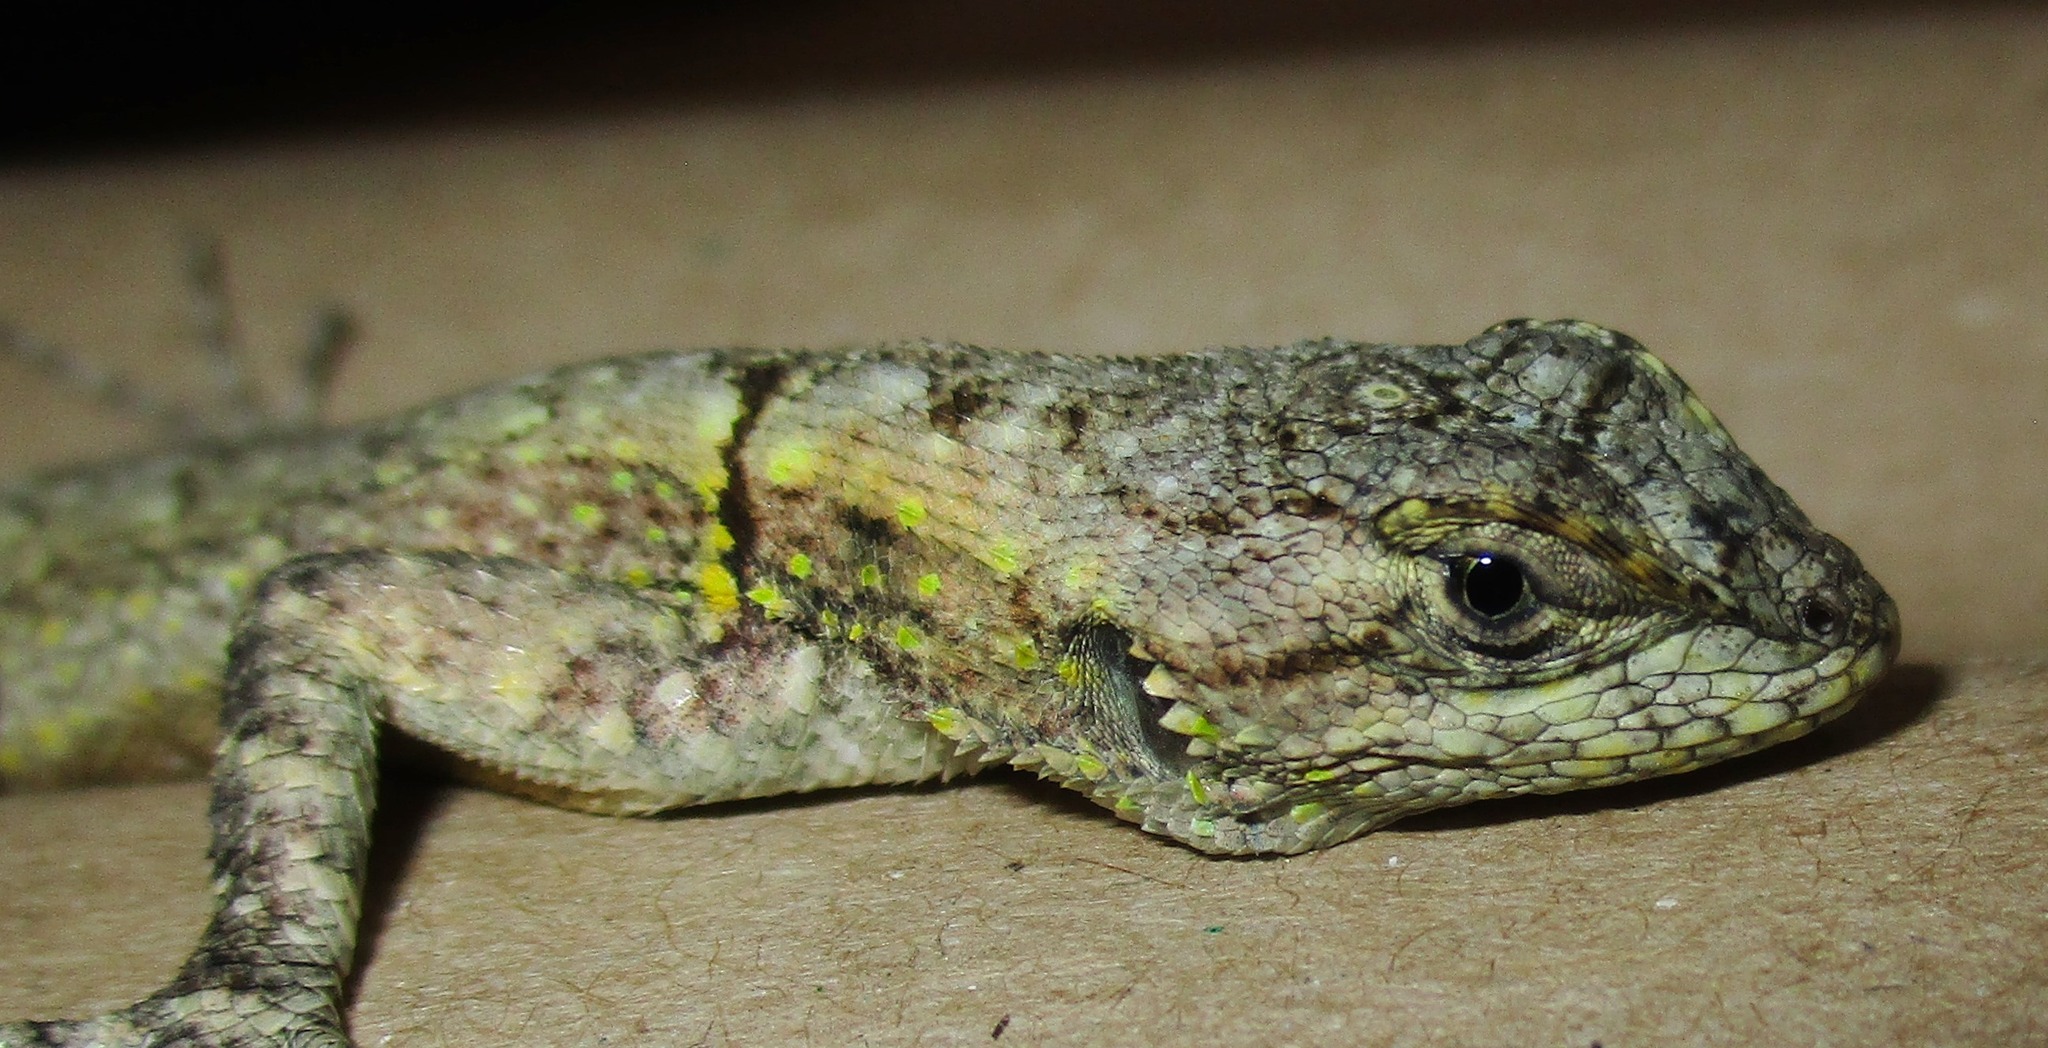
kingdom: Animalia
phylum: Chordata
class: Squamata
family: Phrynosomatidae
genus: Sceloporus
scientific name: Sceloporus grammicus
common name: Mesquite lizard
